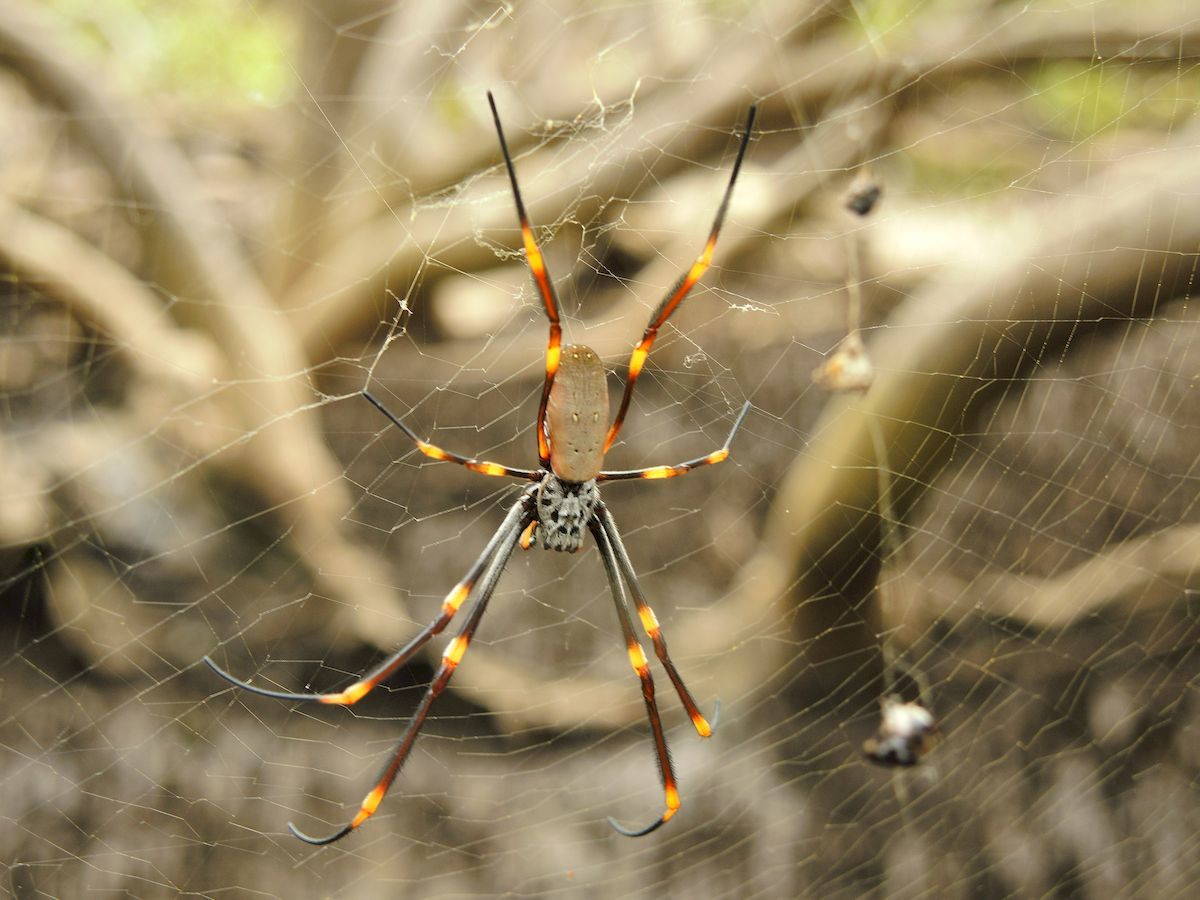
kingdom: Animalia
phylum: Arthropoda
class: Arachnida
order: Araneae
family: Araneidae
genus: Trichonephila
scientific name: Trichonephila plumipes
